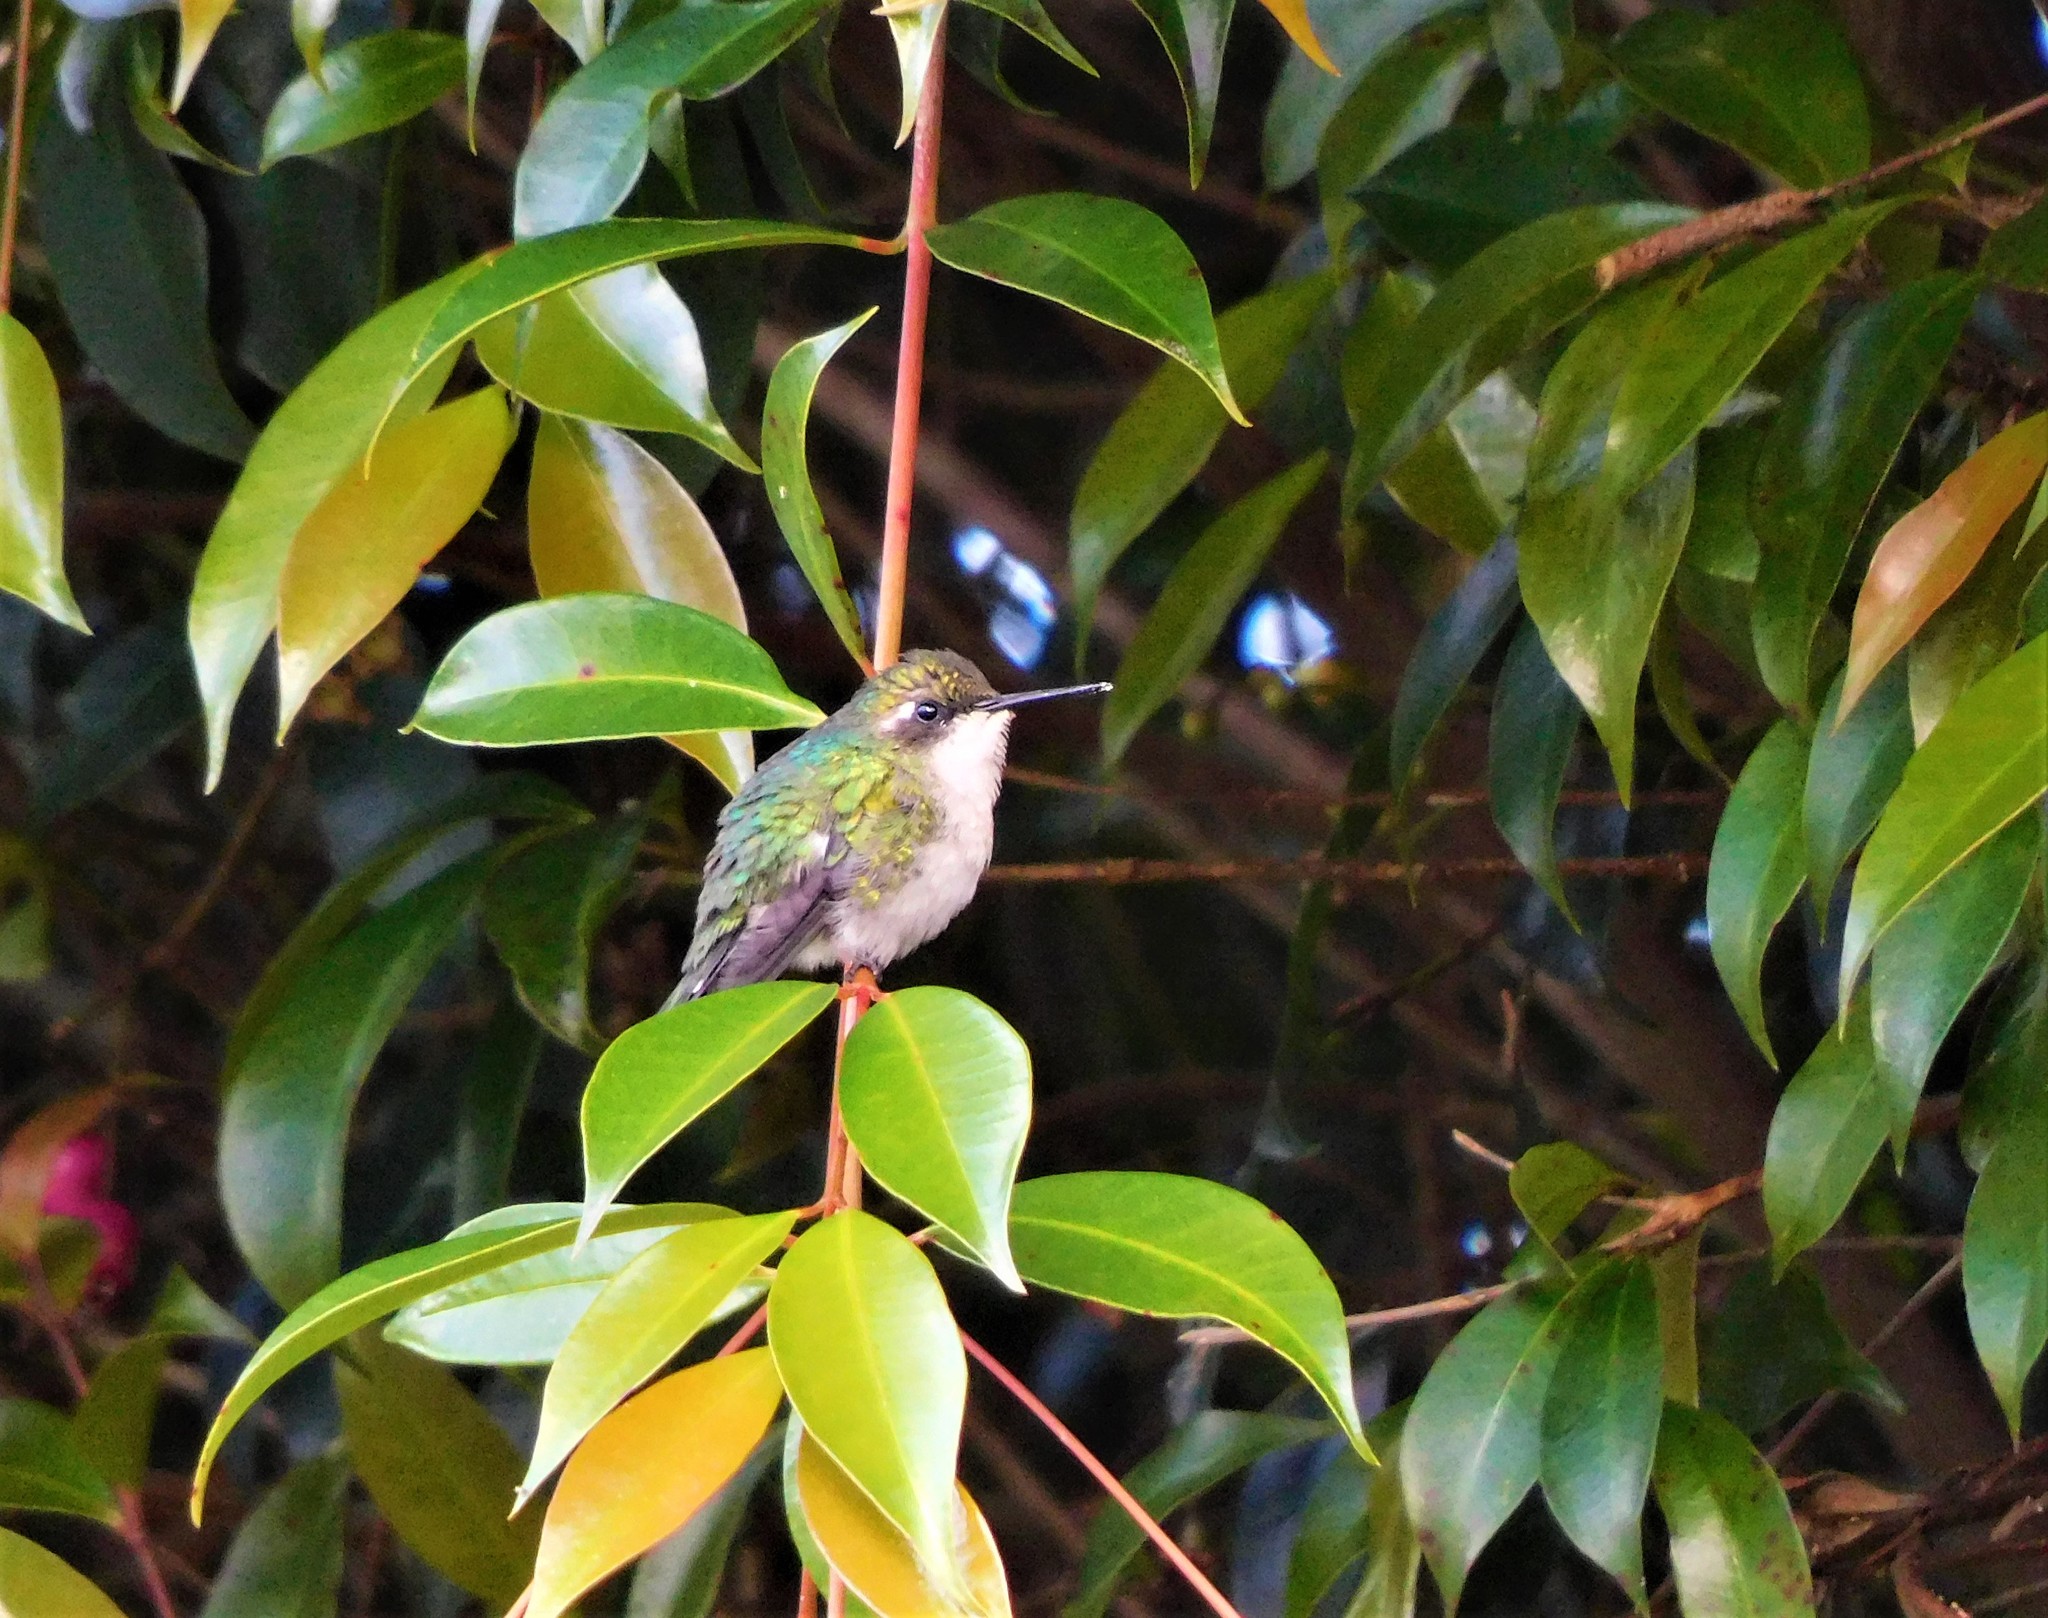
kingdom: Animalia
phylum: Chordata
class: Aves
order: Apodiformes
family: Trochilidae
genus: Chlorostilbon
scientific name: Chlorostilbon melanorhynchus
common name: Western emerald
